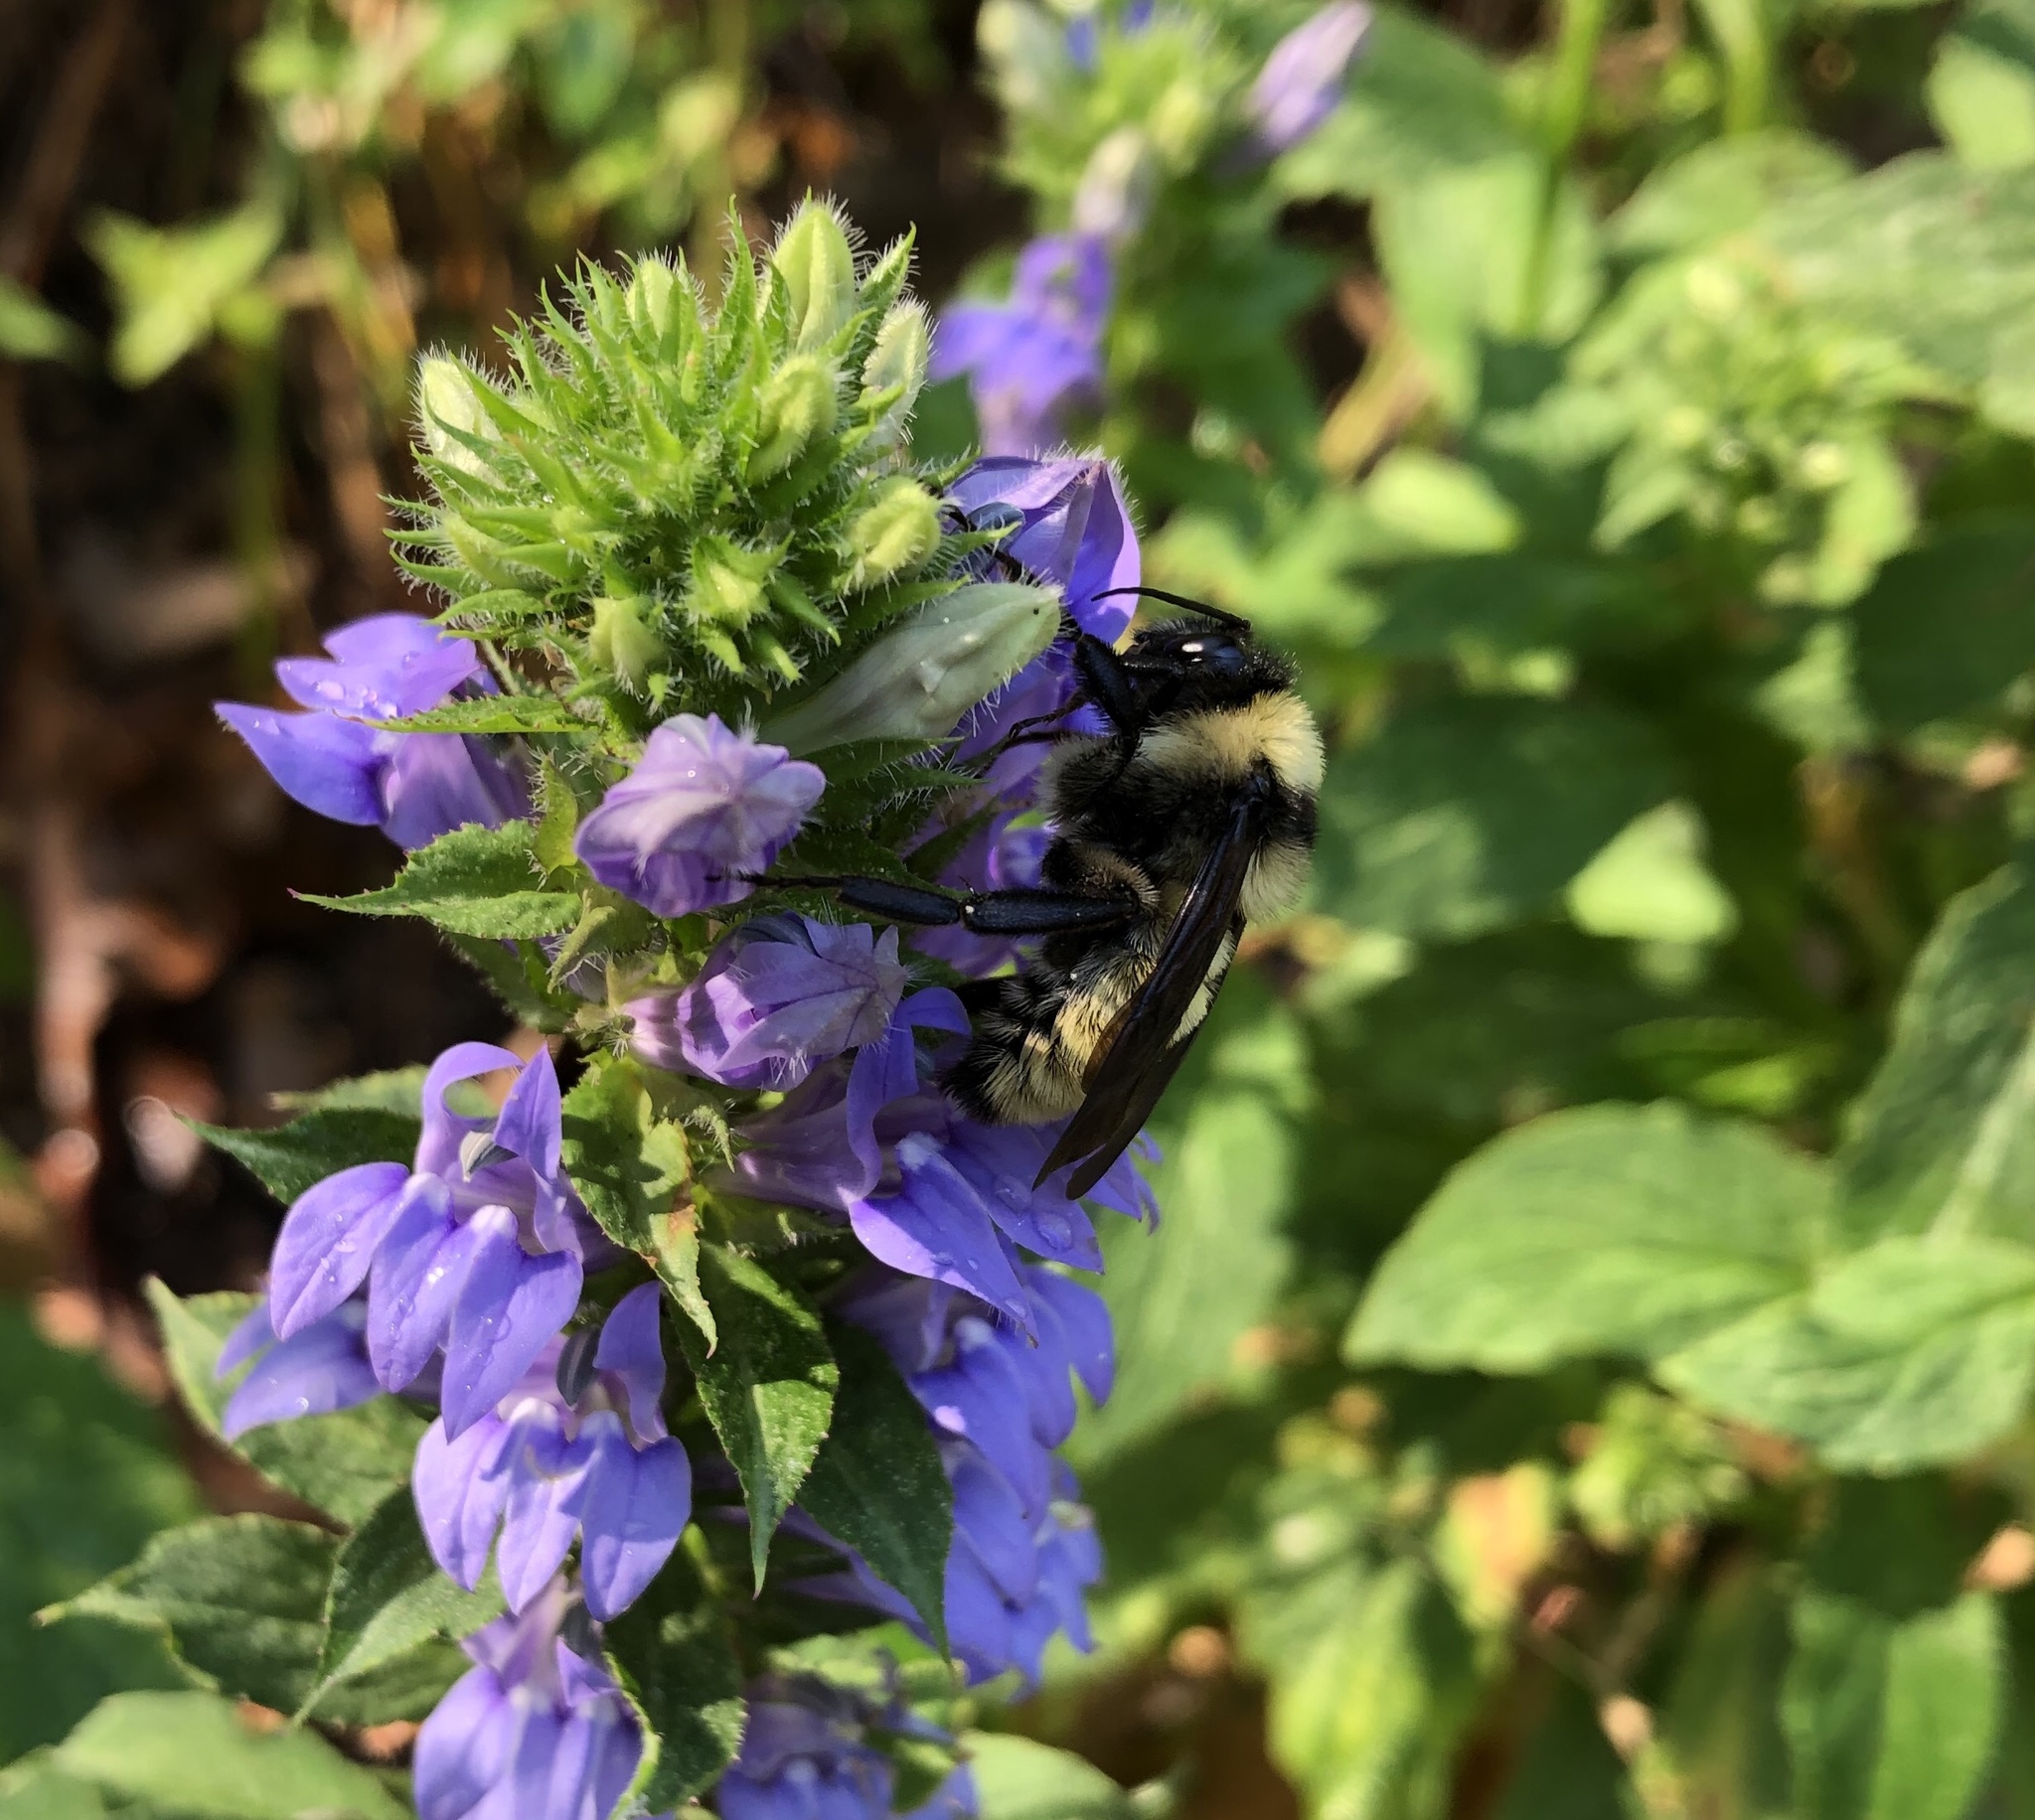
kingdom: Animalia
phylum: Arthropoda
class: Insecta
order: Hymenoptera
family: Apidae
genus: Bombus
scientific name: Bombus pensylvanicus
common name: Bumble bee
